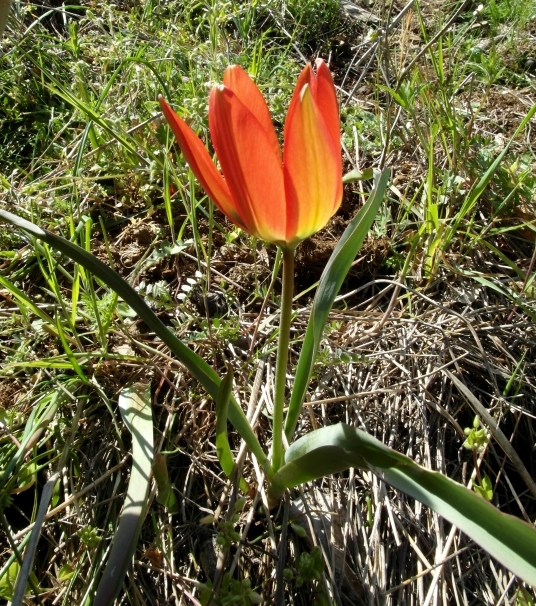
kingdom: Plantae
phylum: Tracheophyta
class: Liliopsida
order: Liliales
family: Liliaceae
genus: Tulipa
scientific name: Tulipa orphanidea
